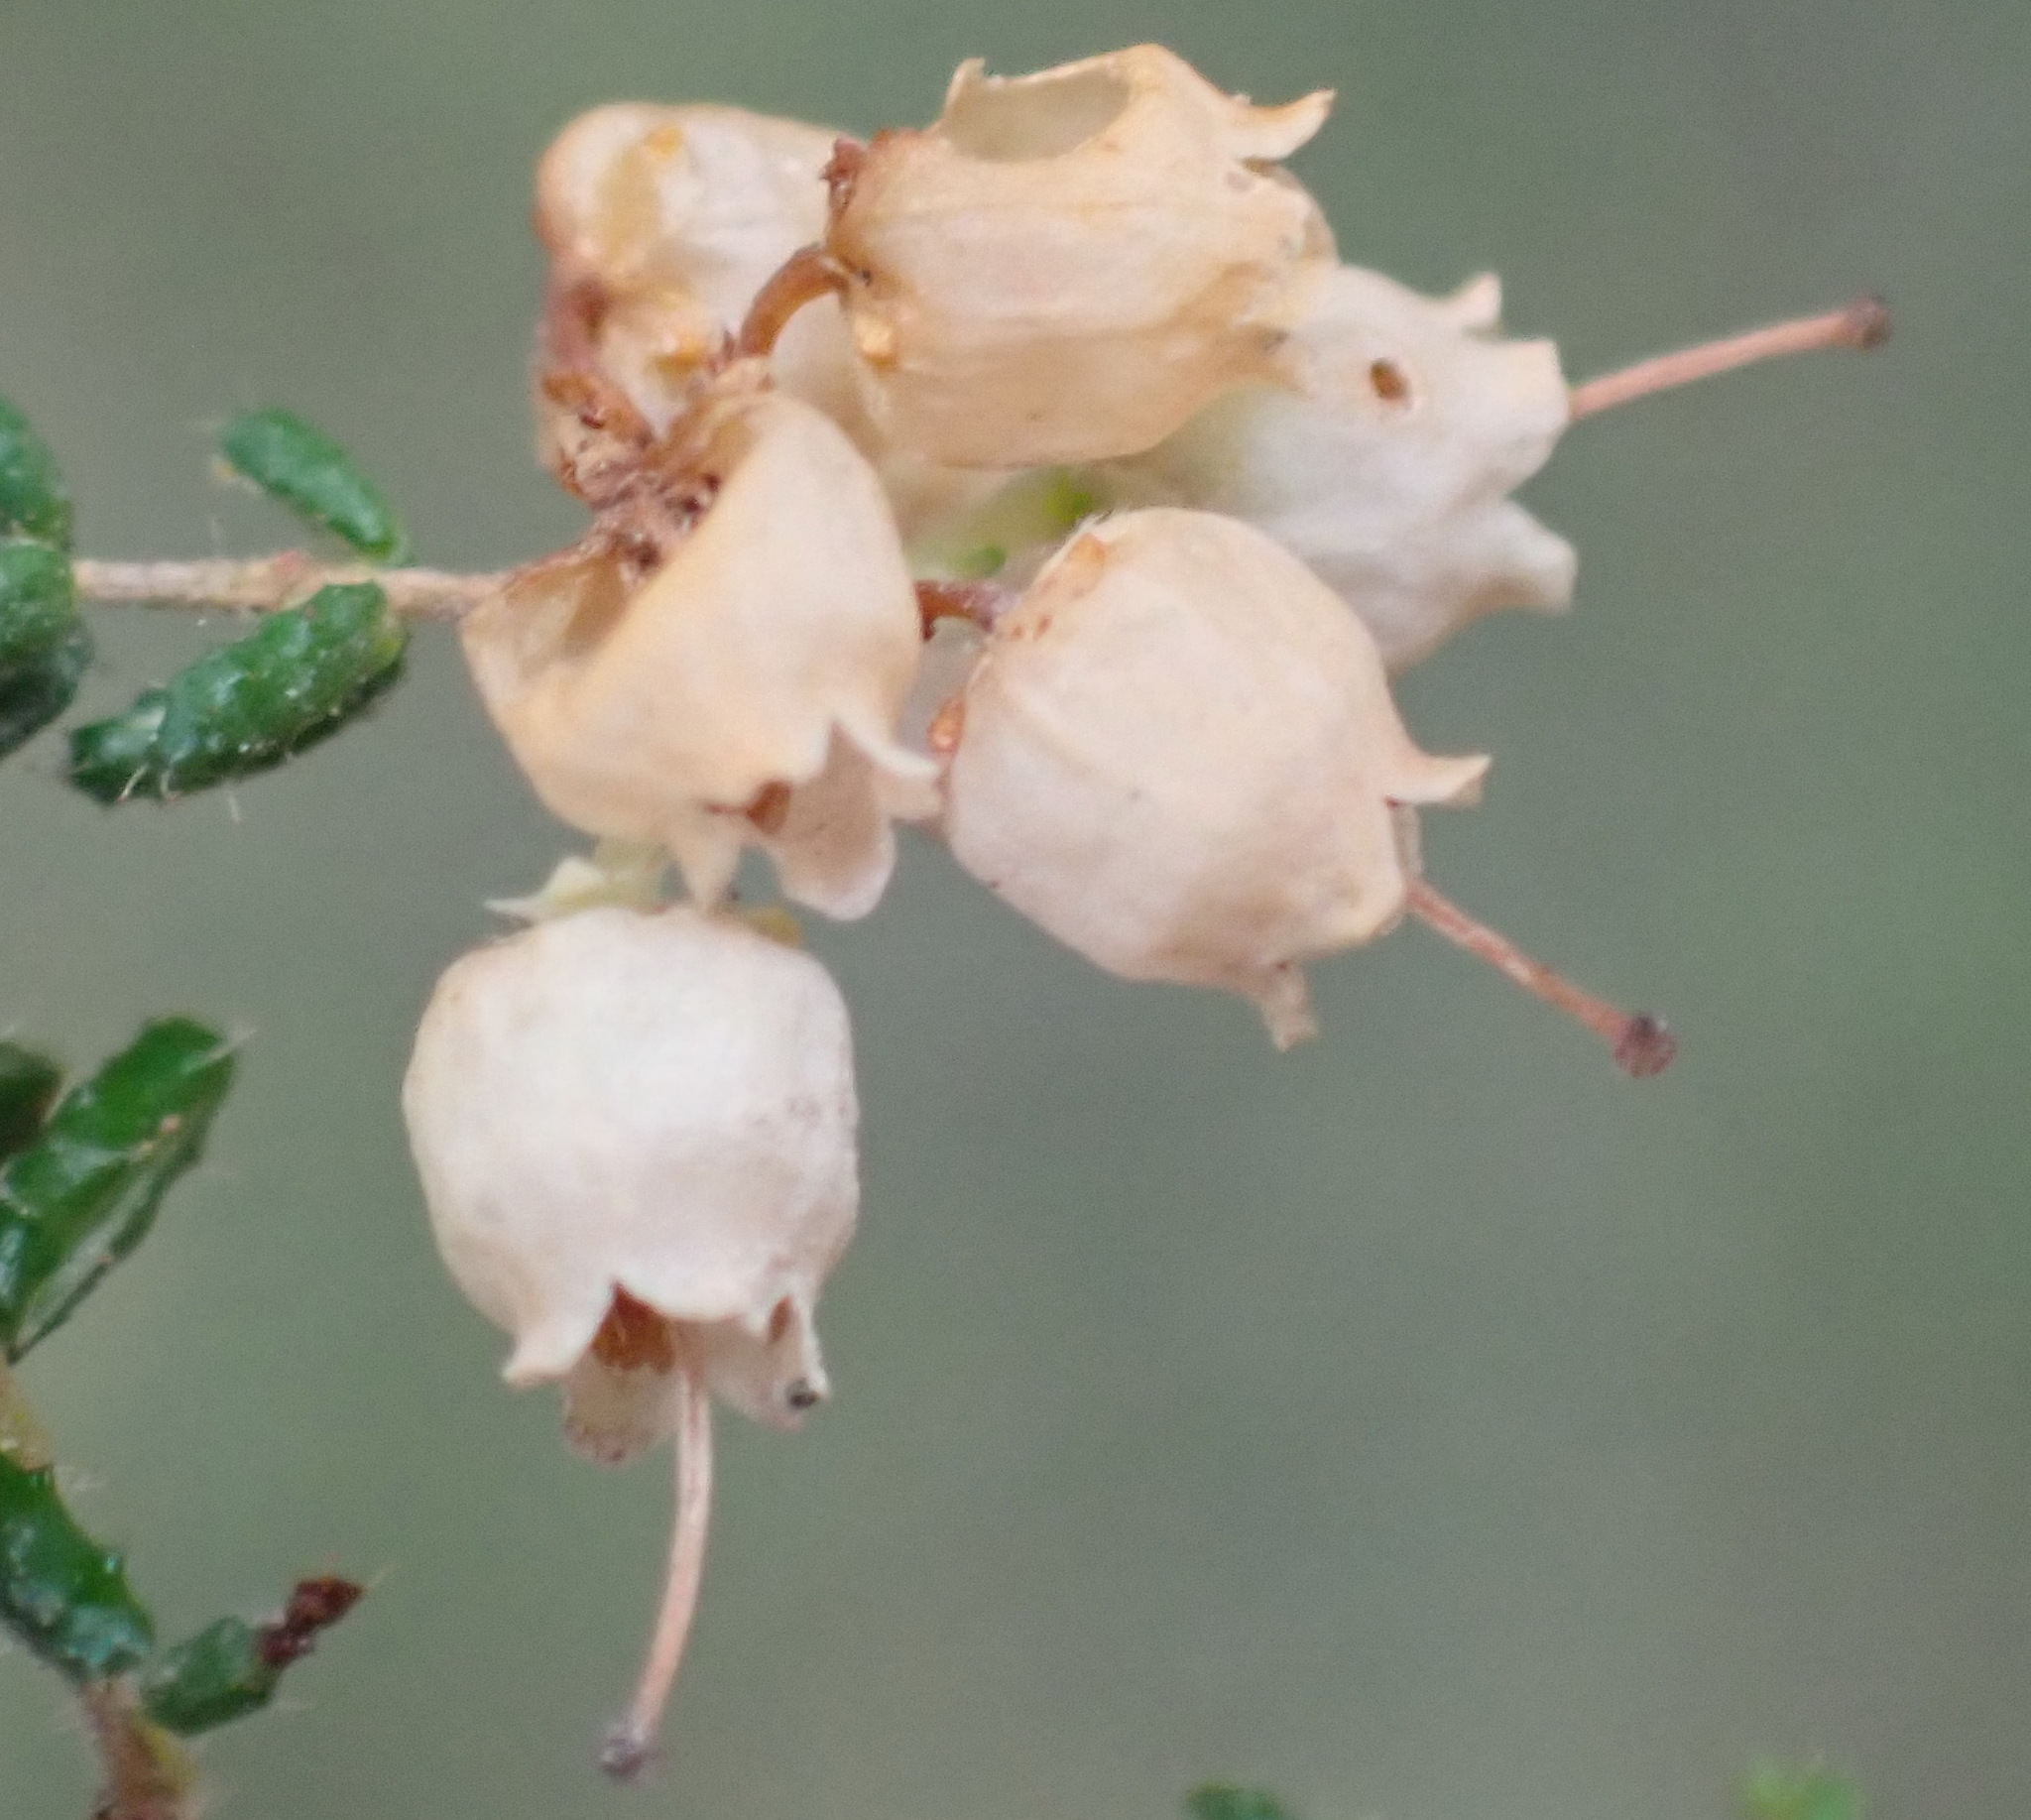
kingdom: Plantae
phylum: Tracheophyta
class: Magnoliopsida
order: Ericales
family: Ericaceae
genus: Erica
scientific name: Erica scabriuscula
